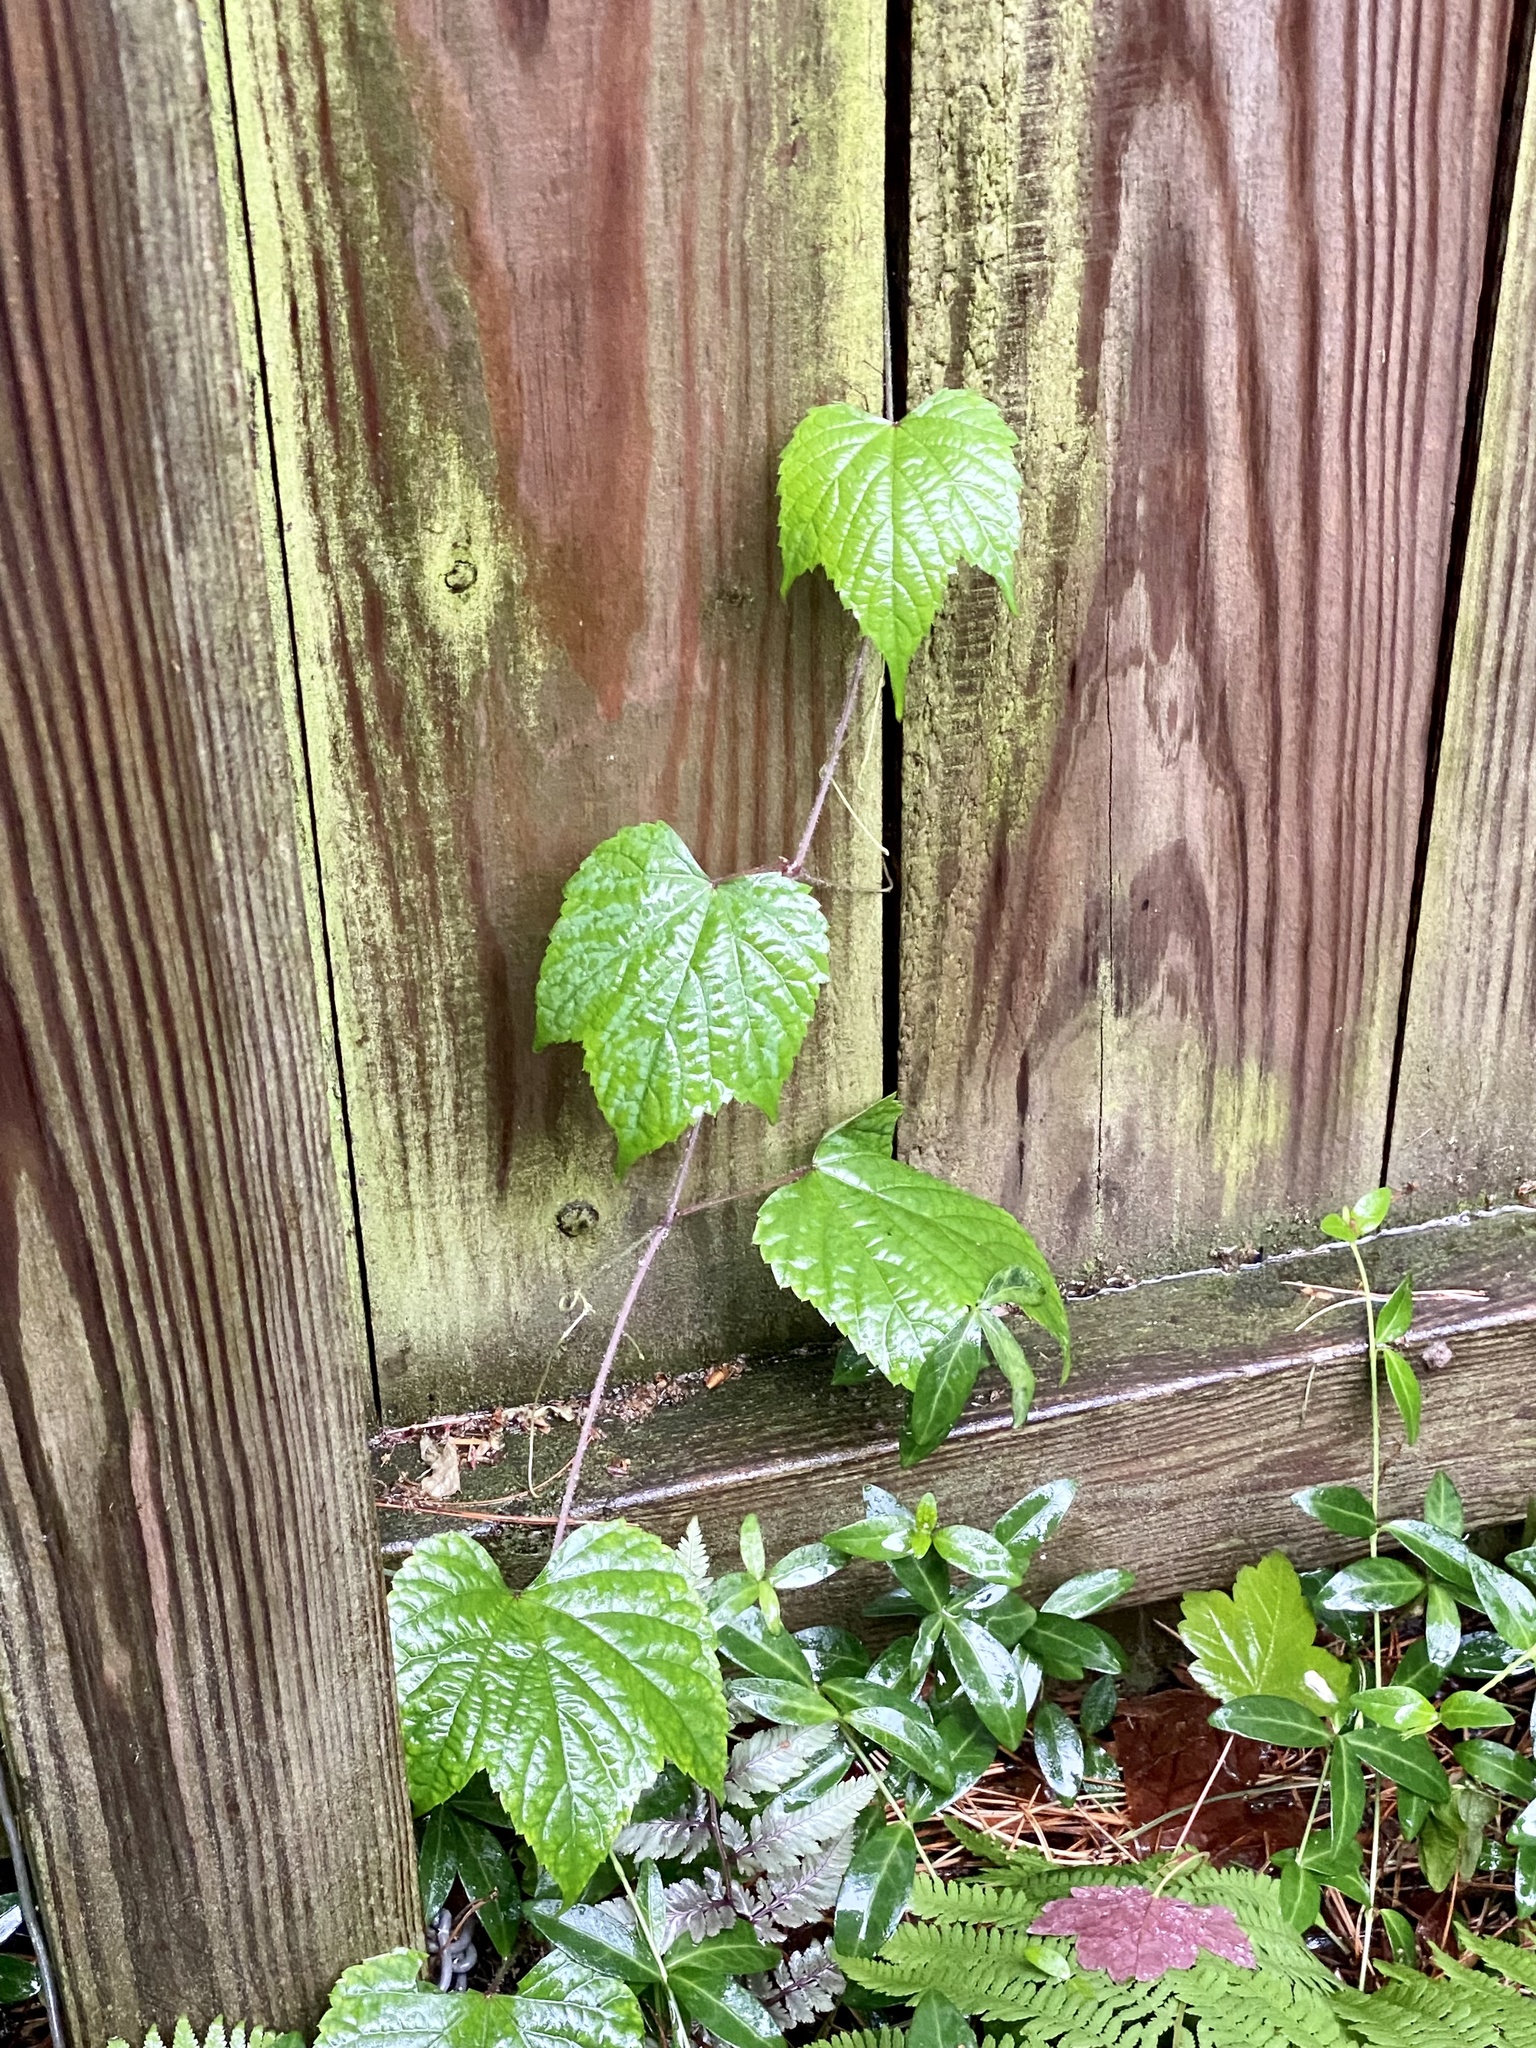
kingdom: Plantae
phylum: Tracheophyta
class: Magnoliopsida
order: Vitales
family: Vitaceae
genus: Ampelopsis
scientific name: Ampelopsis glandulosa
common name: Amur peppervine
